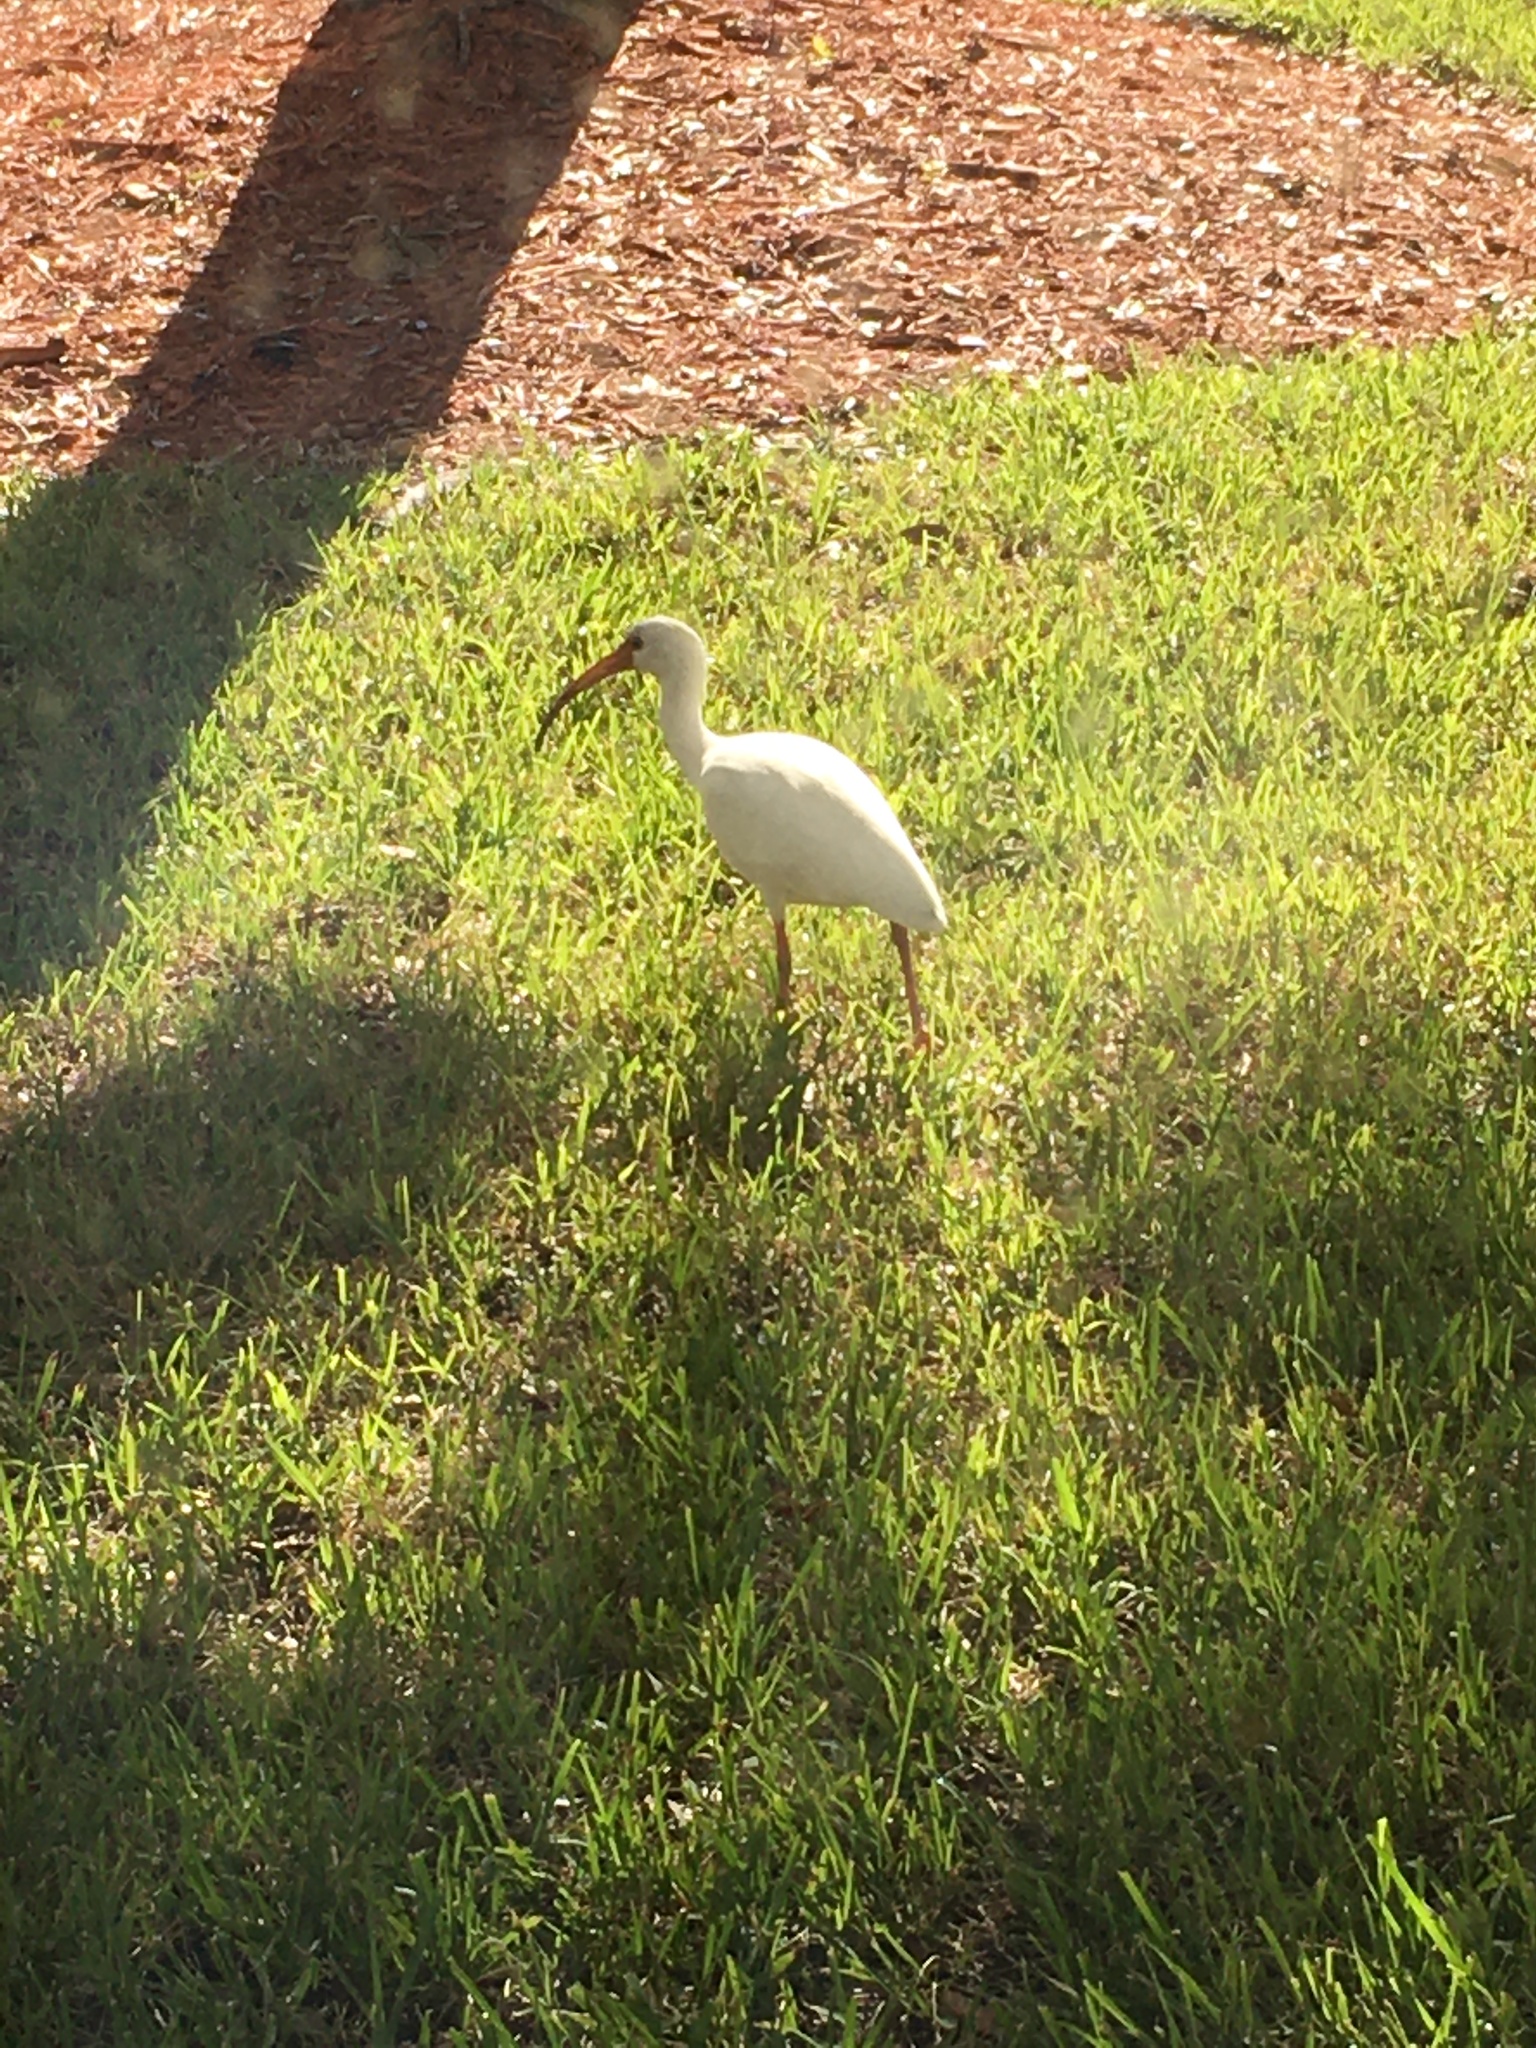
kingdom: Animalia
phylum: Chordata
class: Aves
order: Pelecaniformes
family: Threskiornithidae
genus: Eudocimus
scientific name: Eudocimus albus
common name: White ibis
